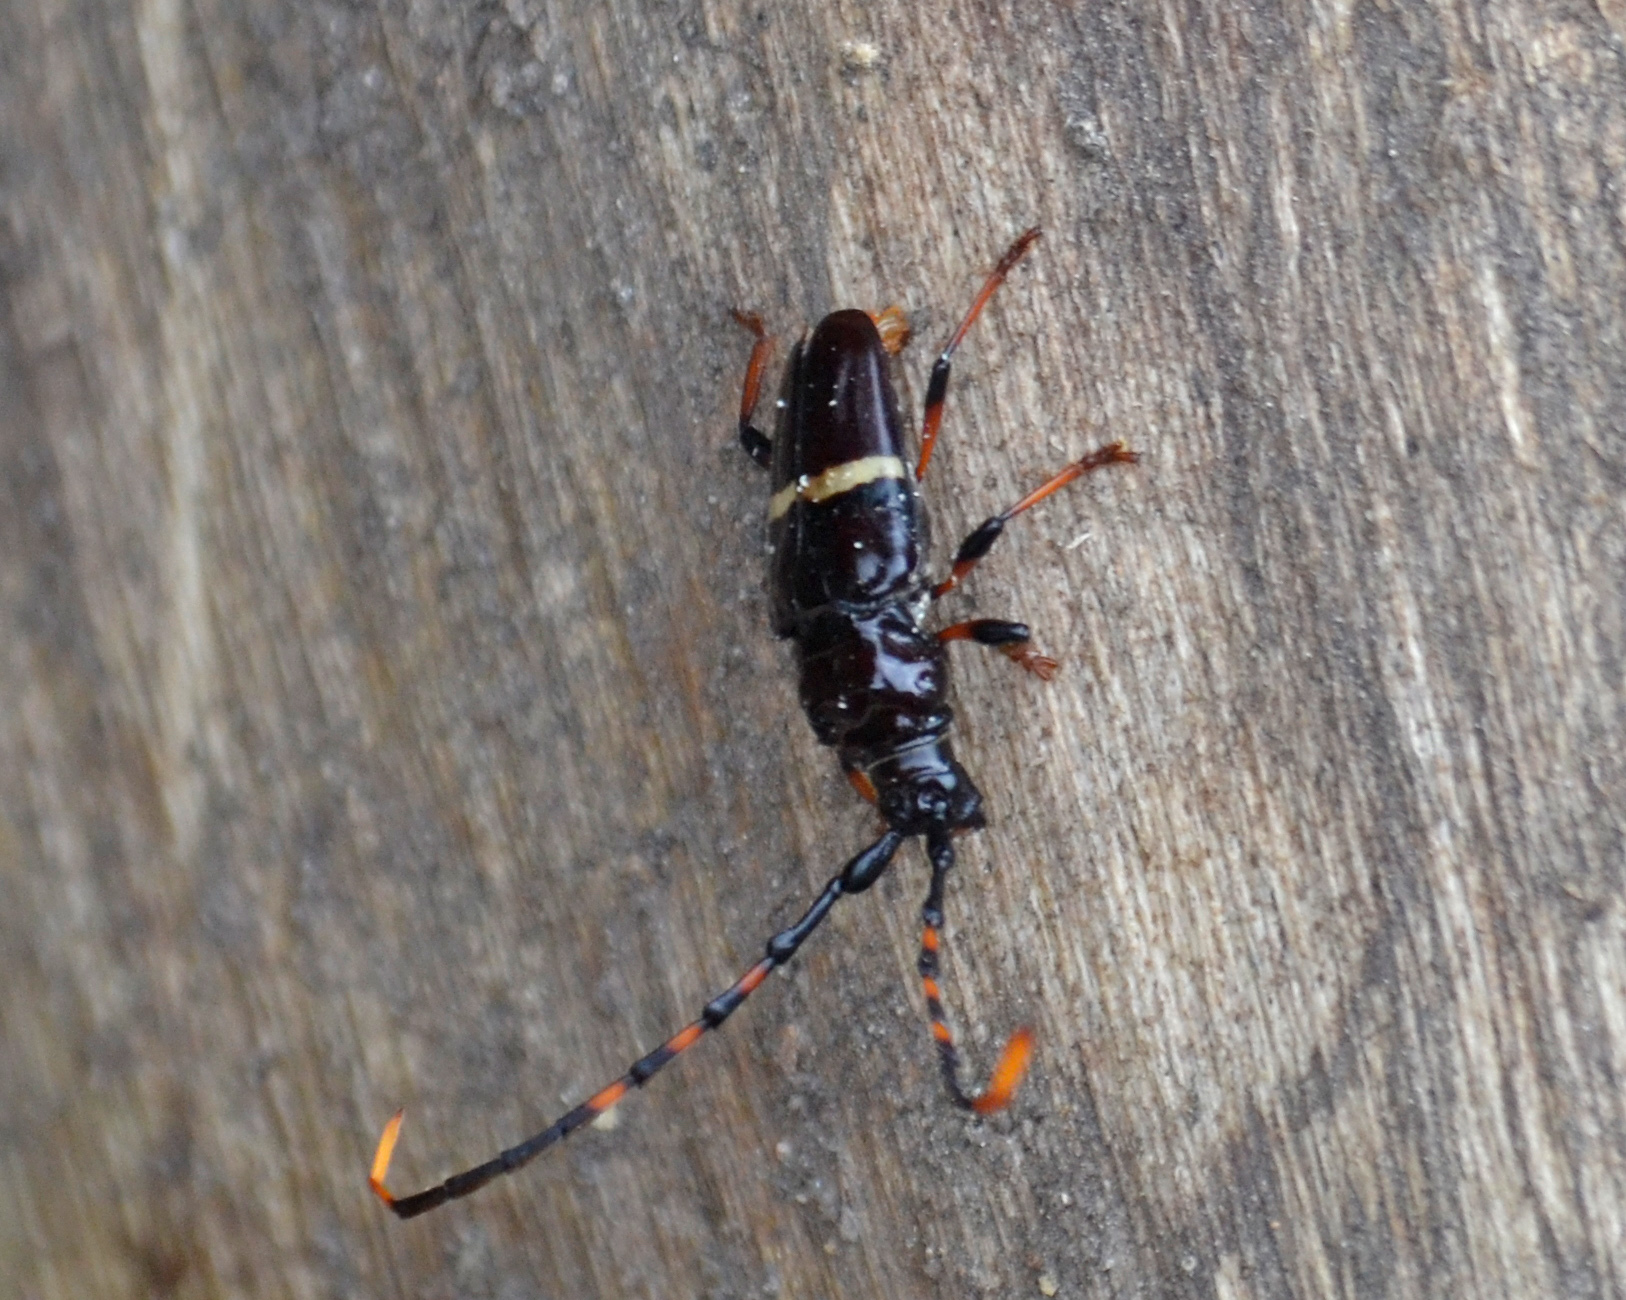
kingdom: Animalia
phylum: Arthropoda
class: Insecta
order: Coleoptera
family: Cerambycidae
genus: Trachyderes
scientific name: Trachyderes succinctus
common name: Mango longhorn
